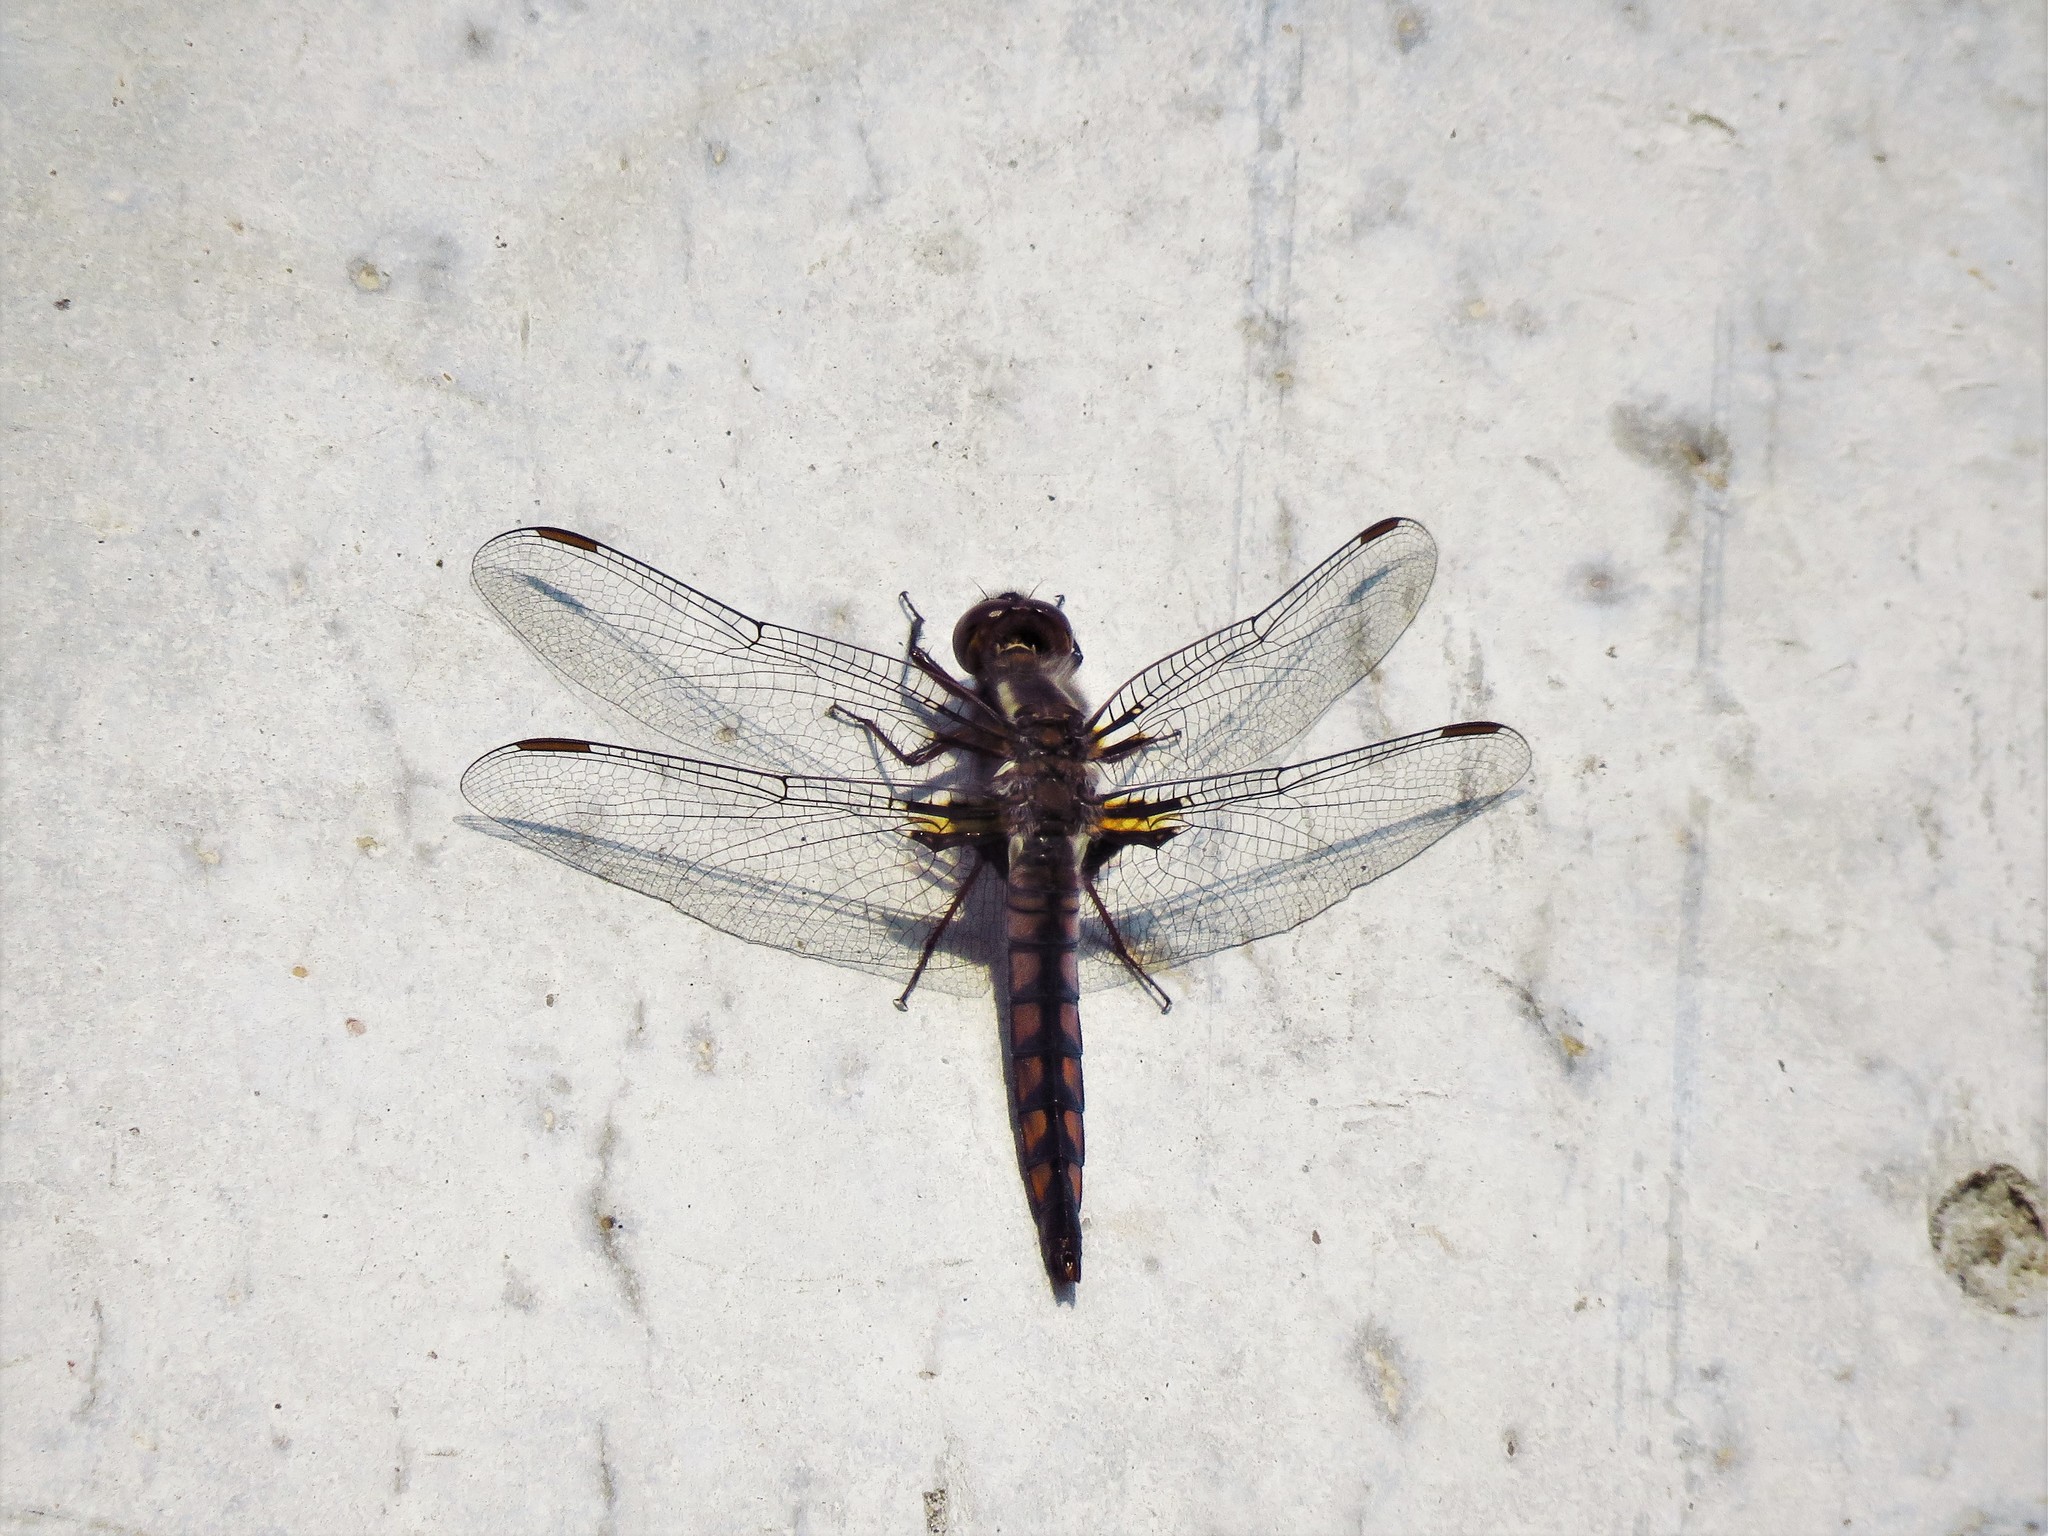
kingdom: Animalia
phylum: Arthropoda
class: Insecta
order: Odonata
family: Libellulidae
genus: Ladona
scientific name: Ladona deplanata
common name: Blue corporal
